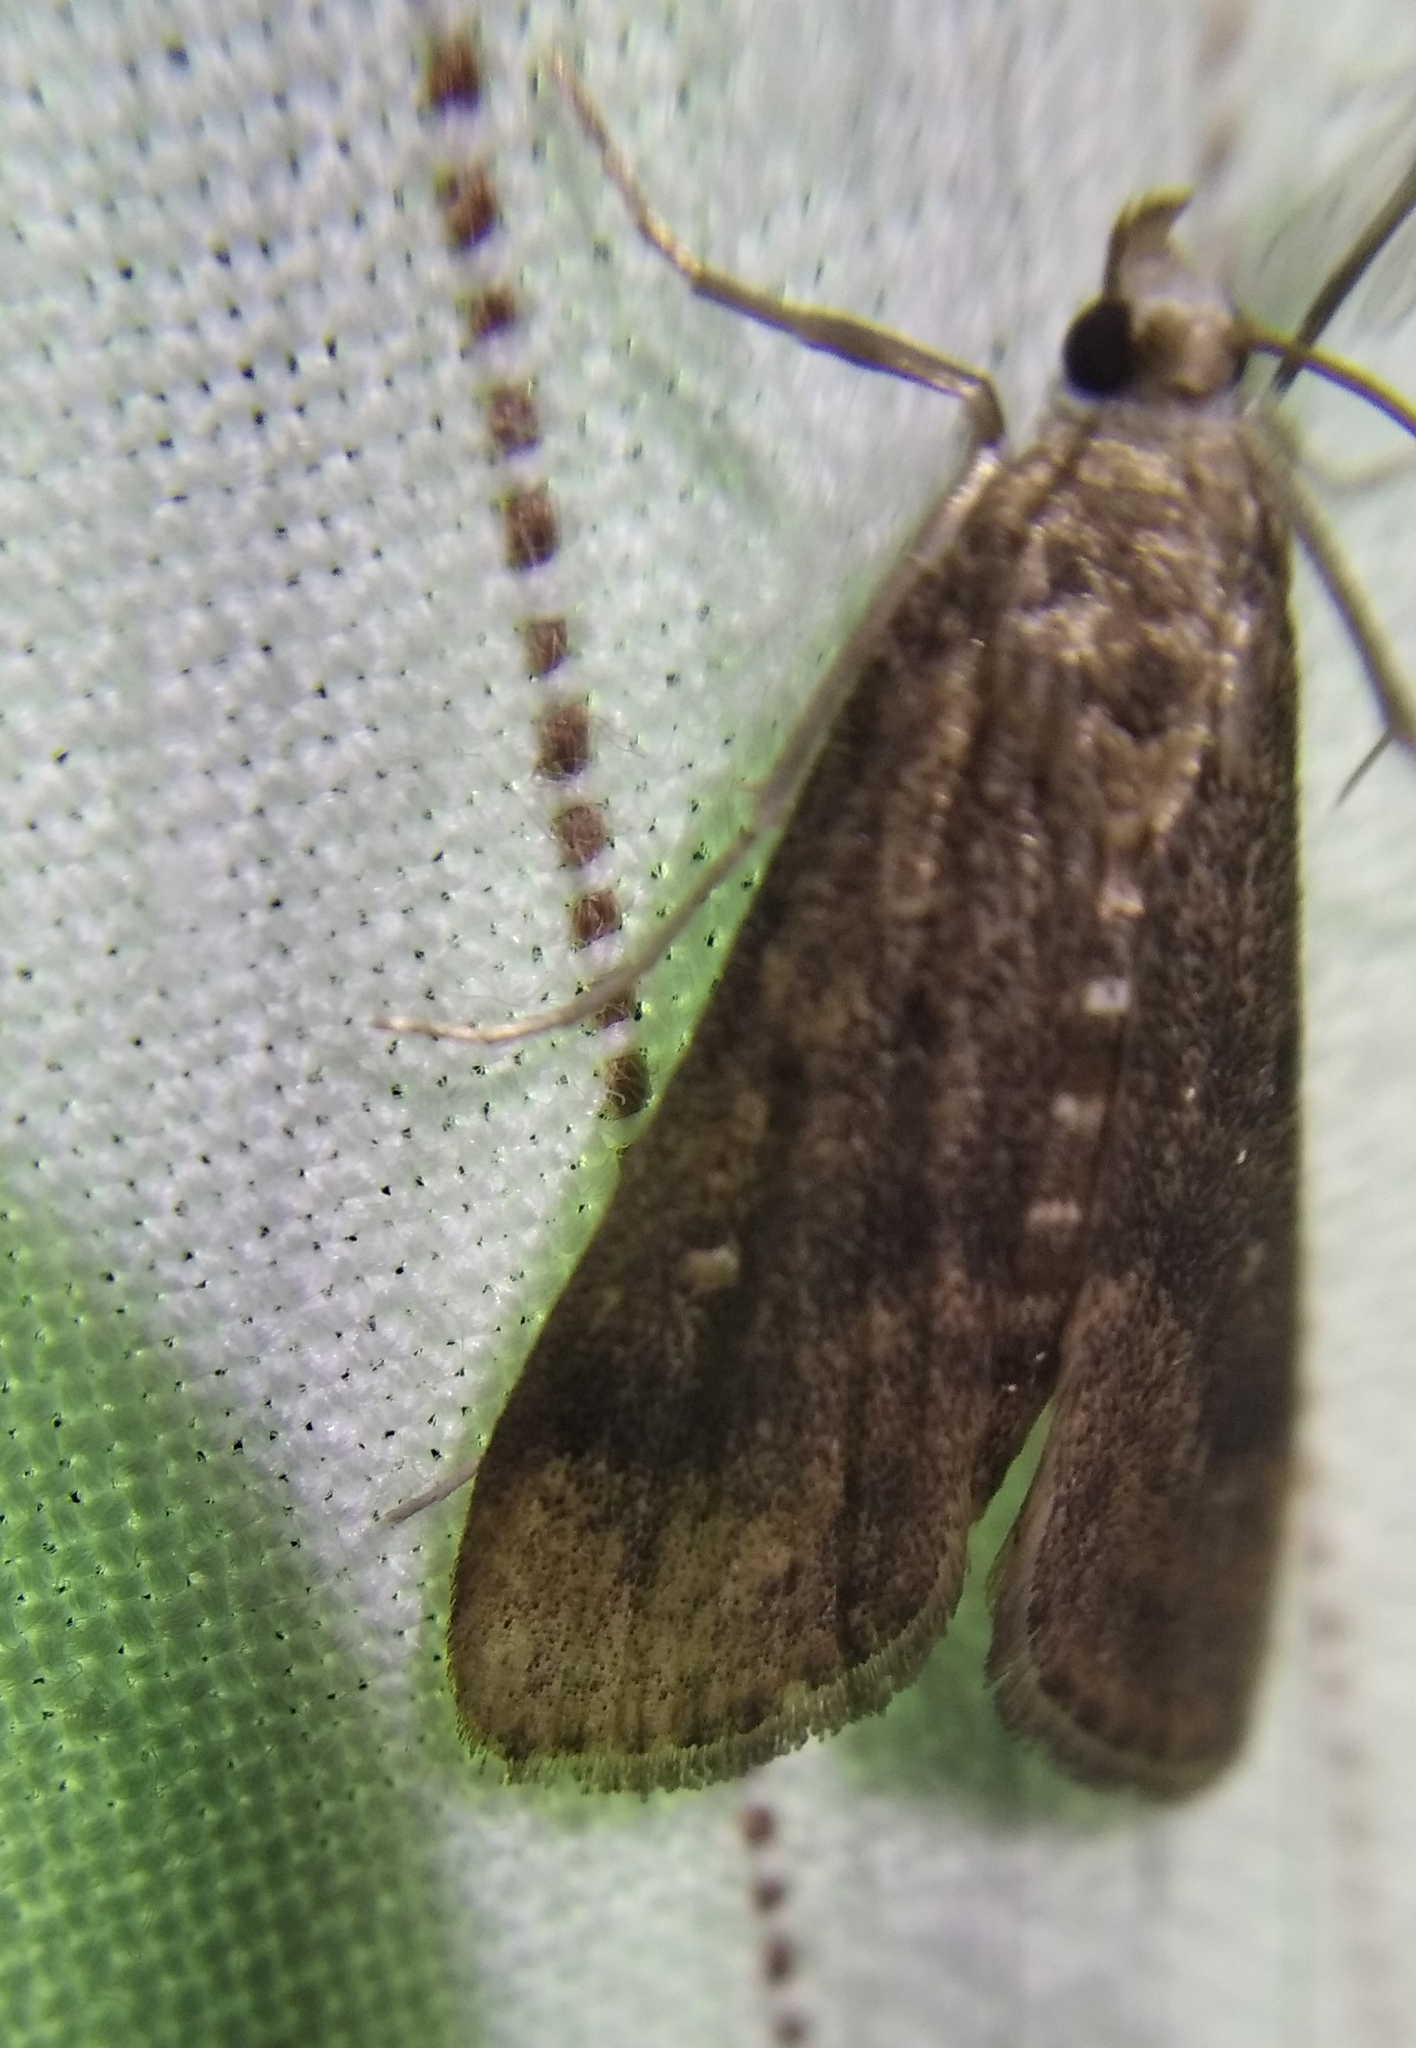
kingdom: Animalia
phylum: Arthropoda
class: Insecta
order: Lepidoptera
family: Crambidae
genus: Parapoynx
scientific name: Parapoynx stratiotata
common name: Ringed china-mark
